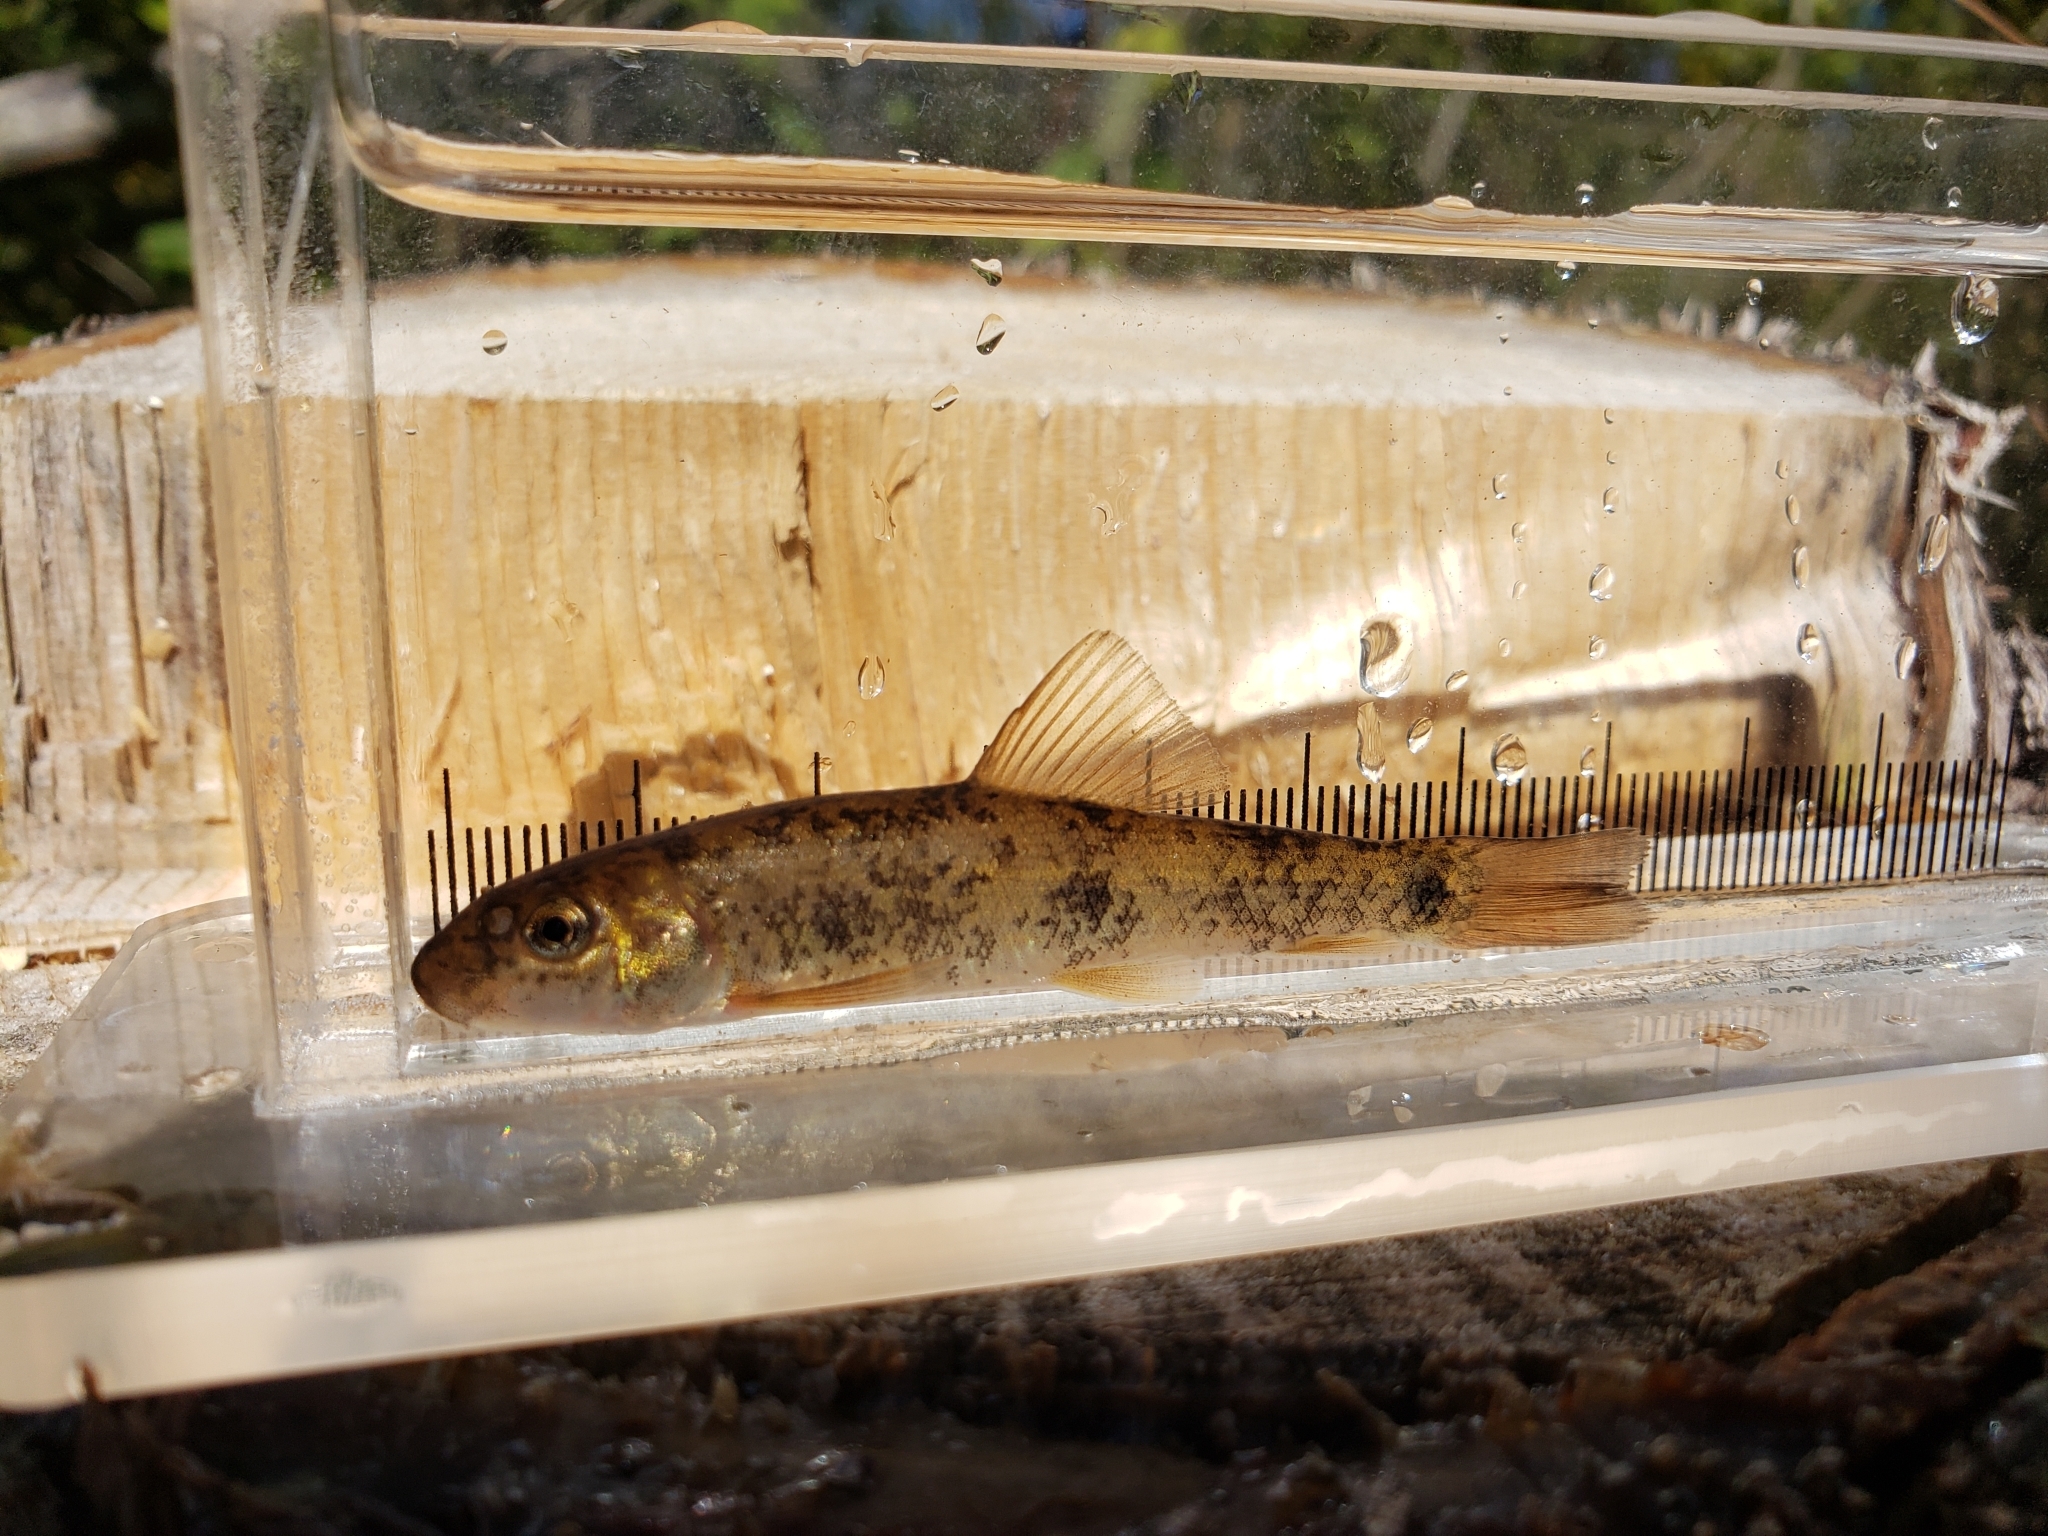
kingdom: Animalia
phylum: Chordata
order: Cypriniformes
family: Catostomidae
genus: Catostomus
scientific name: Catostomus commersonii
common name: White sucker
